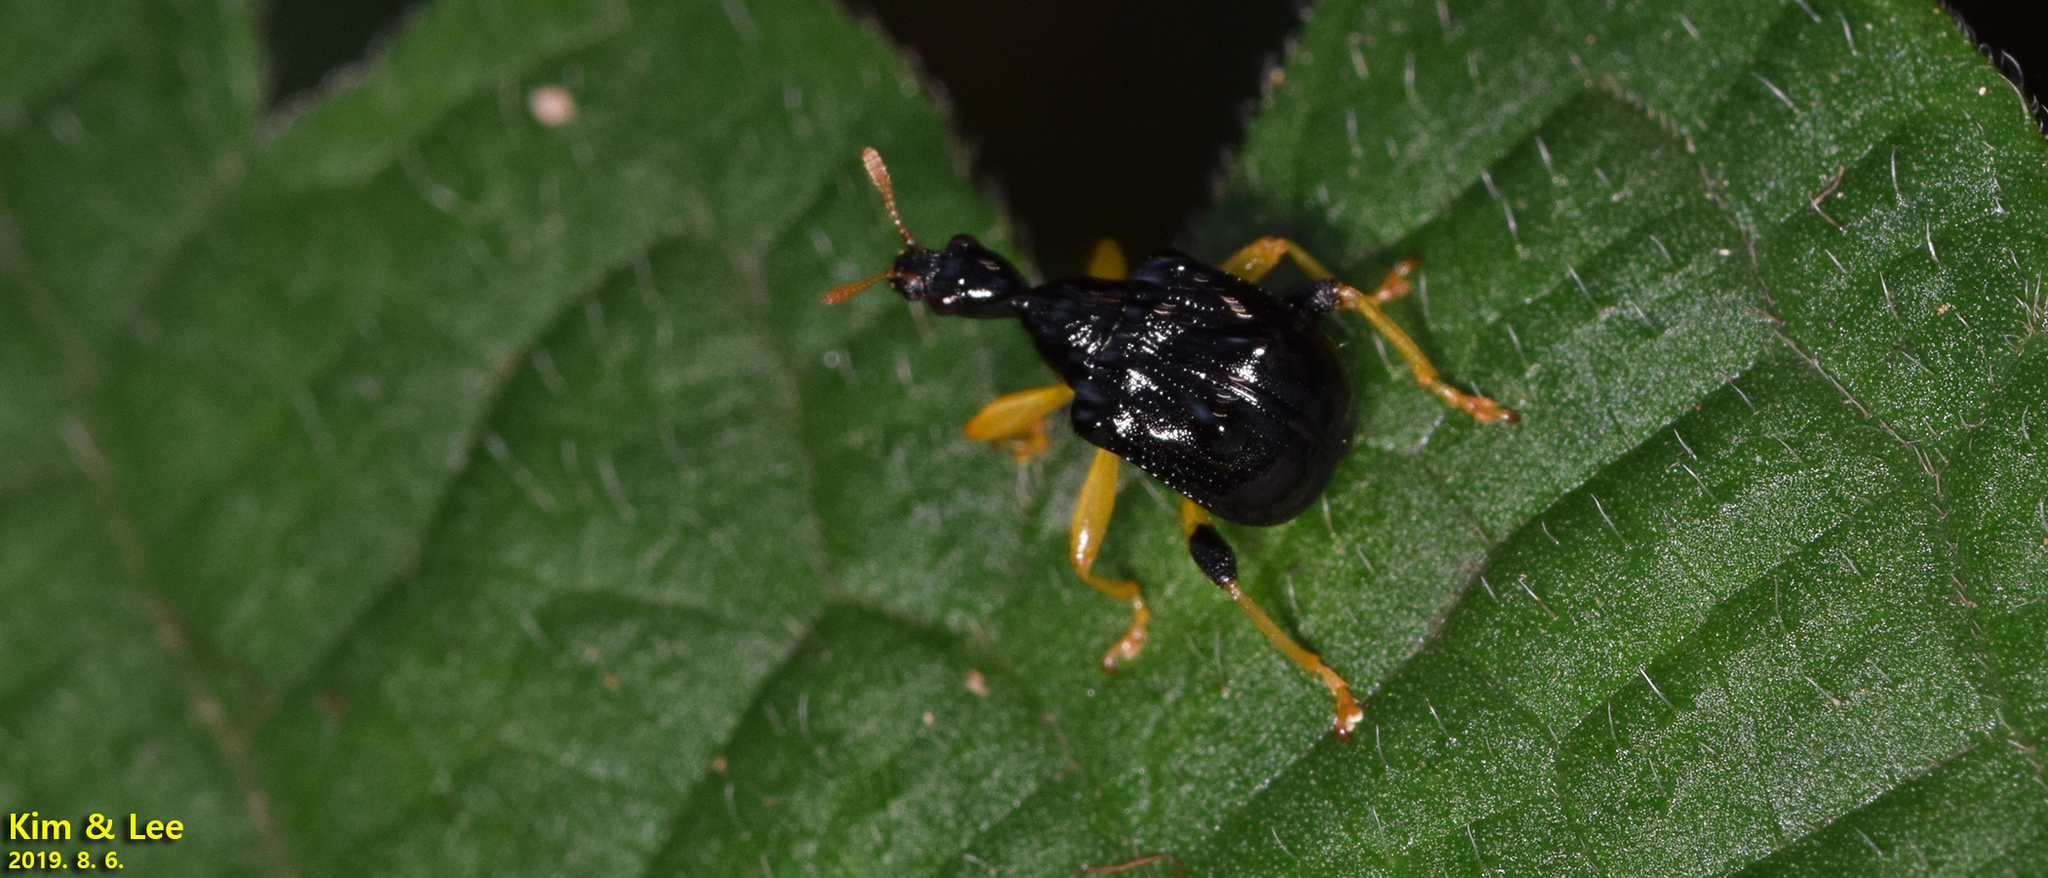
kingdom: Animalia
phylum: Arthropoda
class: Insecta
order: Coleoptera
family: Attelabidae
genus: Phymatapoderus
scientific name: Phymatapoderus flavimanus
